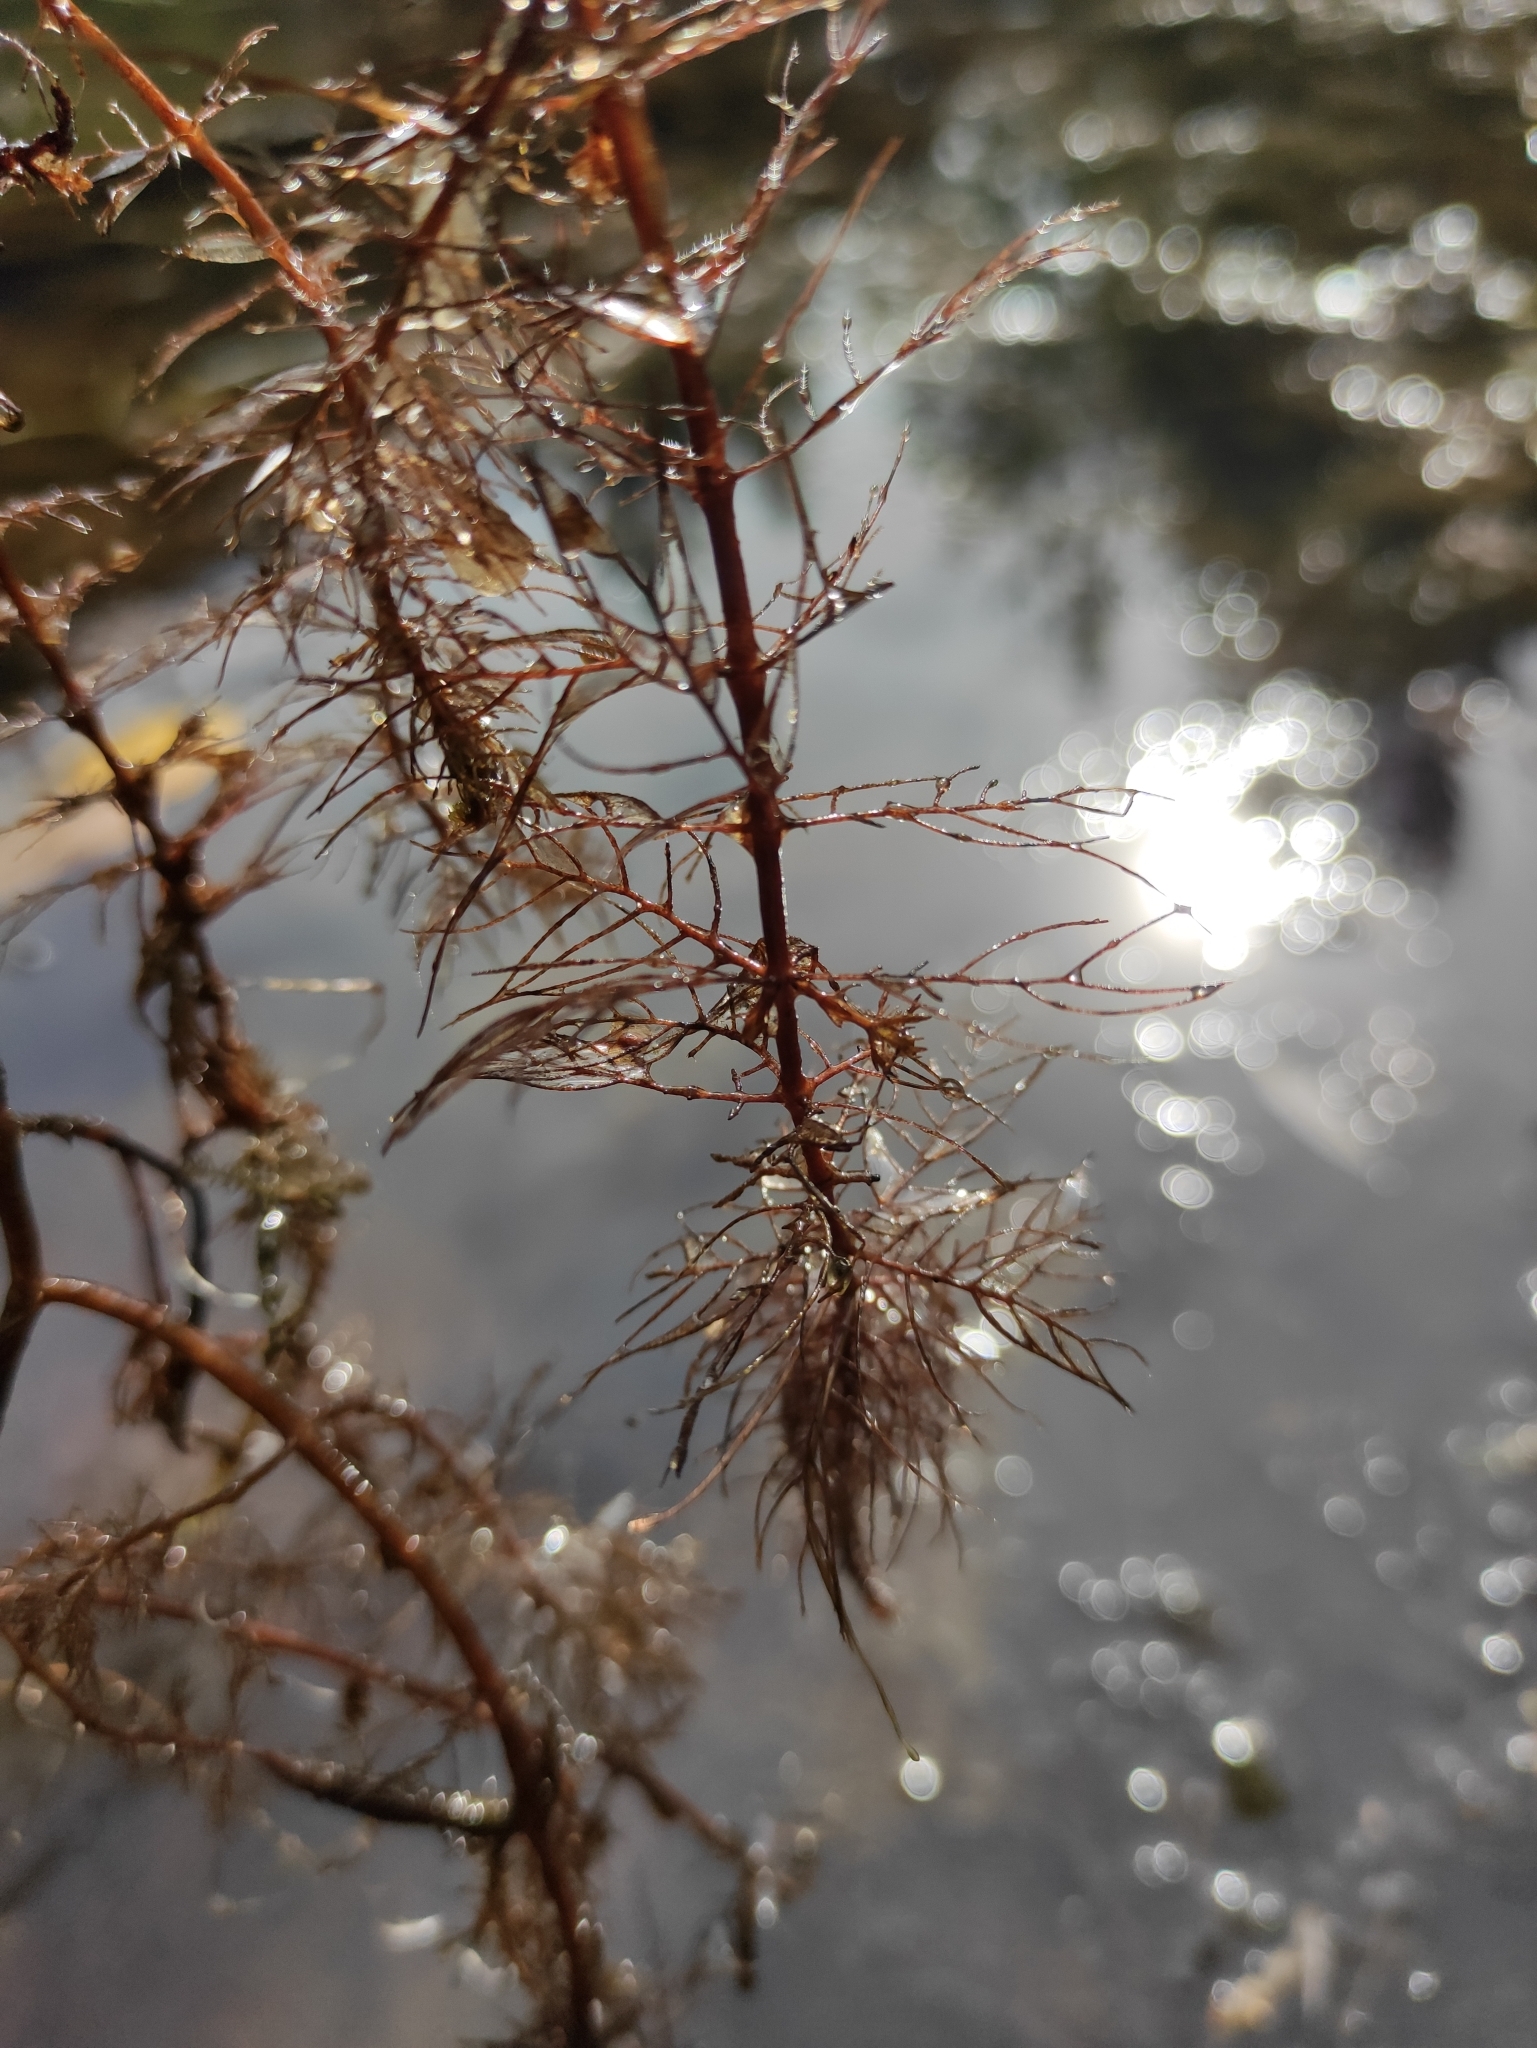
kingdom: Plantae
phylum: Tracheophyta
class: Magnoliopsida
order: Saxifragales
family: Haloragaceae
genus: Myriophyllum
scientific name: Myriophyllum sibiricum
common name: Siberian water-milfoil
